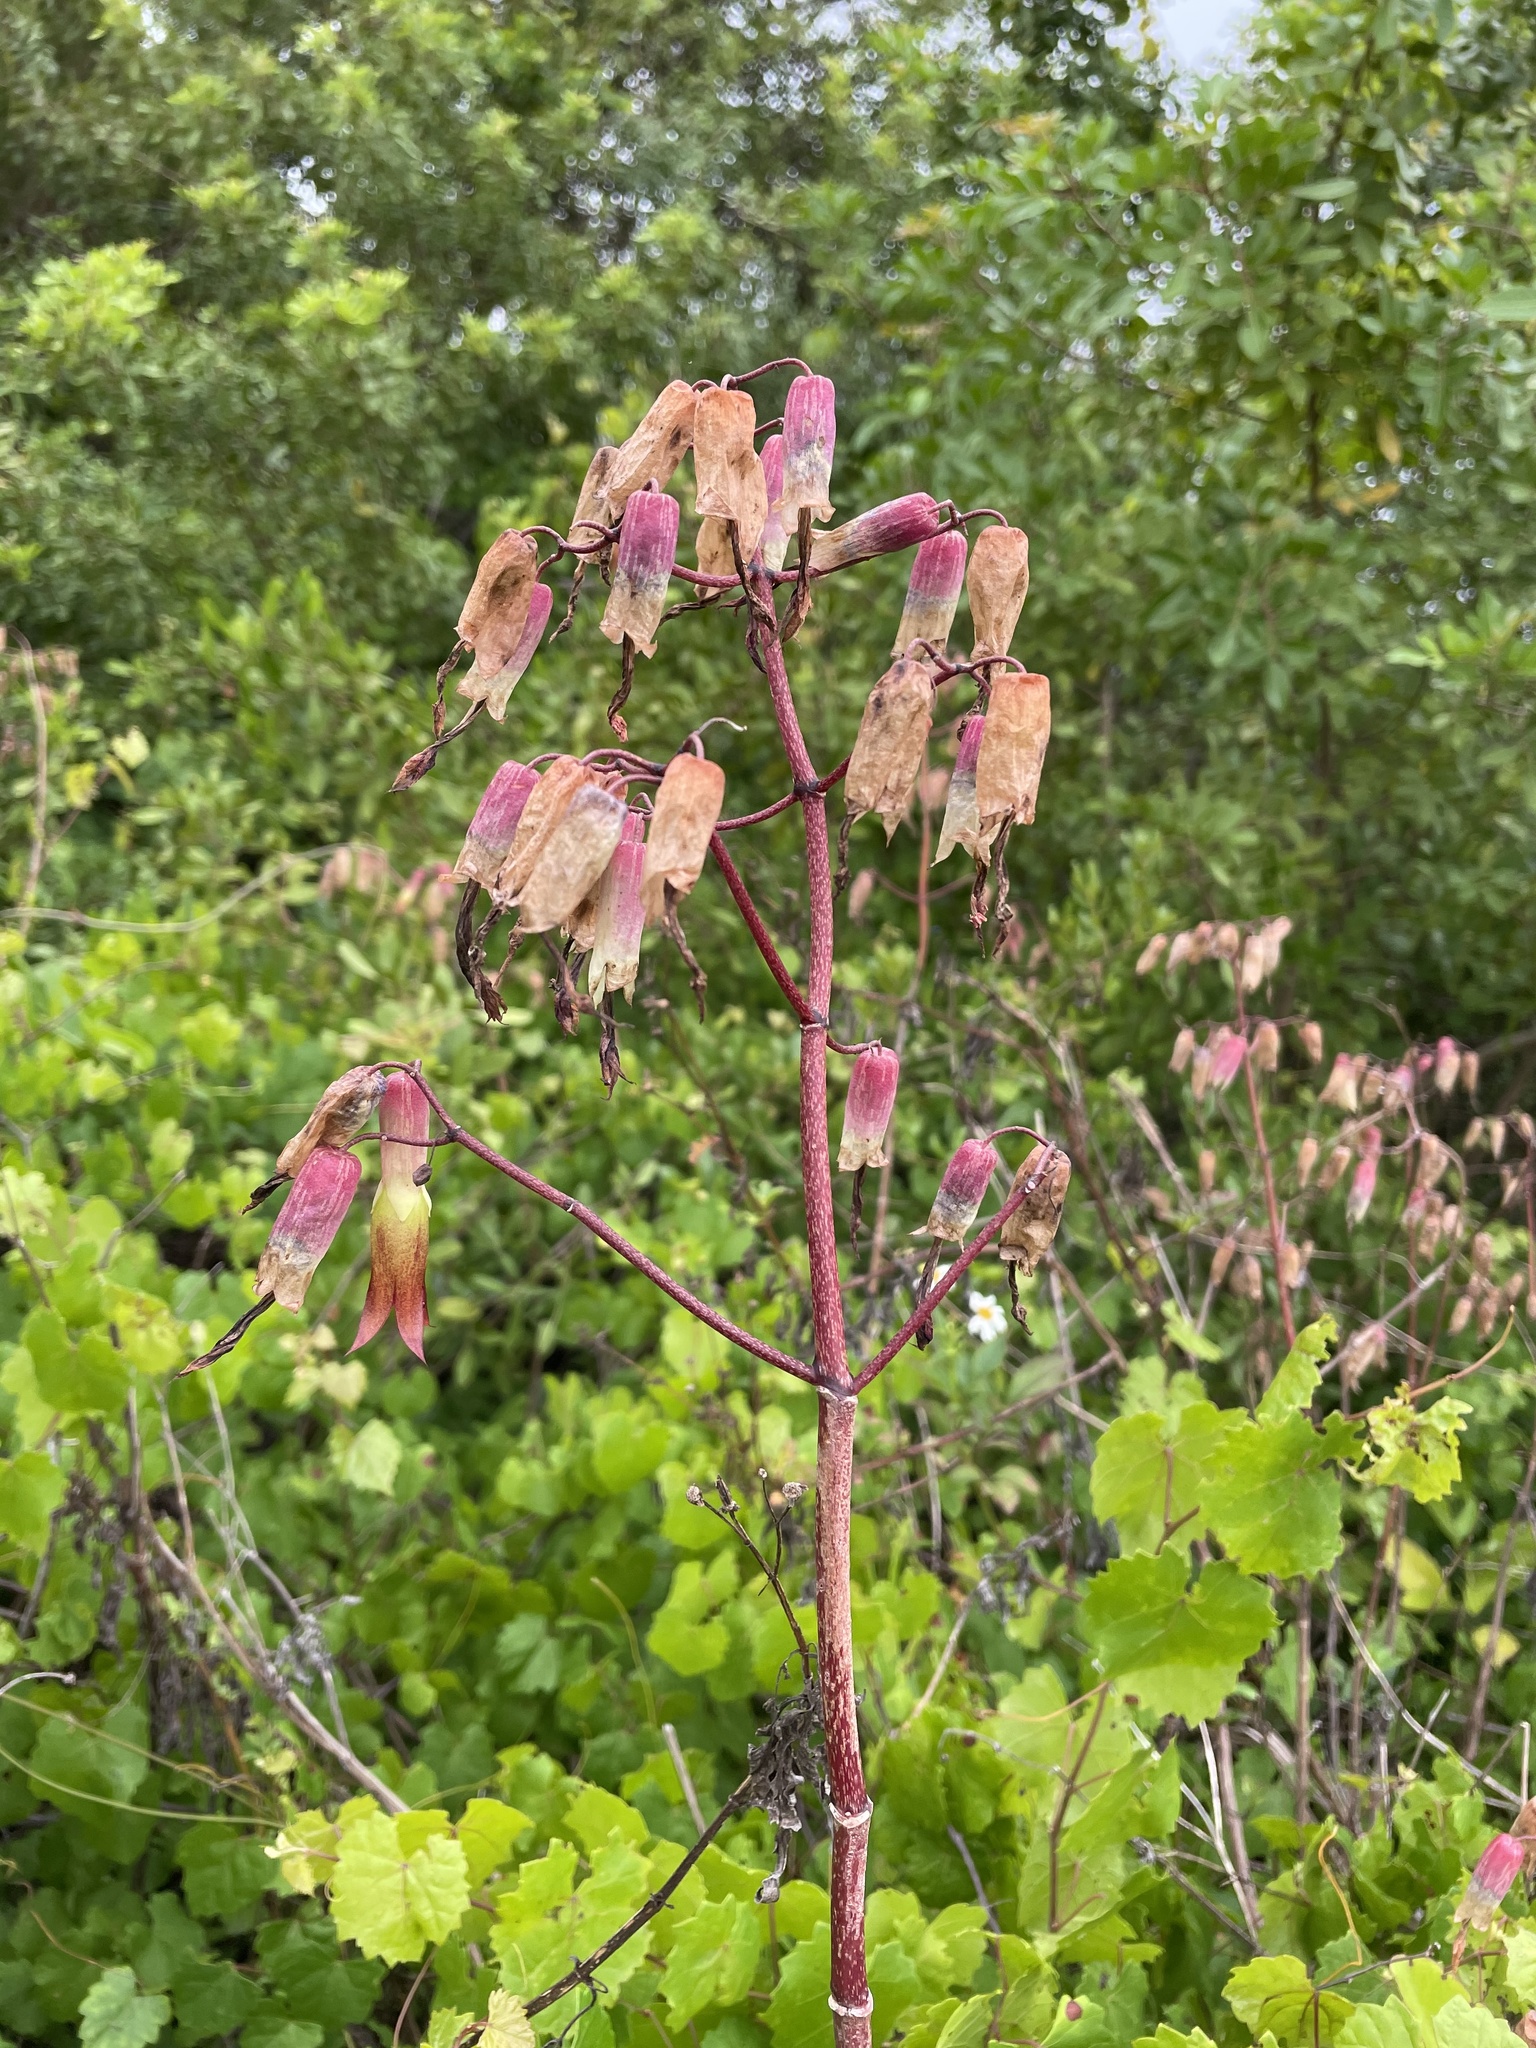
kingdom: Plantae
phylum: Tracheophyta
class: Magnoliopsida
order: Saxifragales
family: Crassulaceae
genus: Kalanchoe
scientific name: Kalanchoe delagoensis
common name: Chandelier plant
